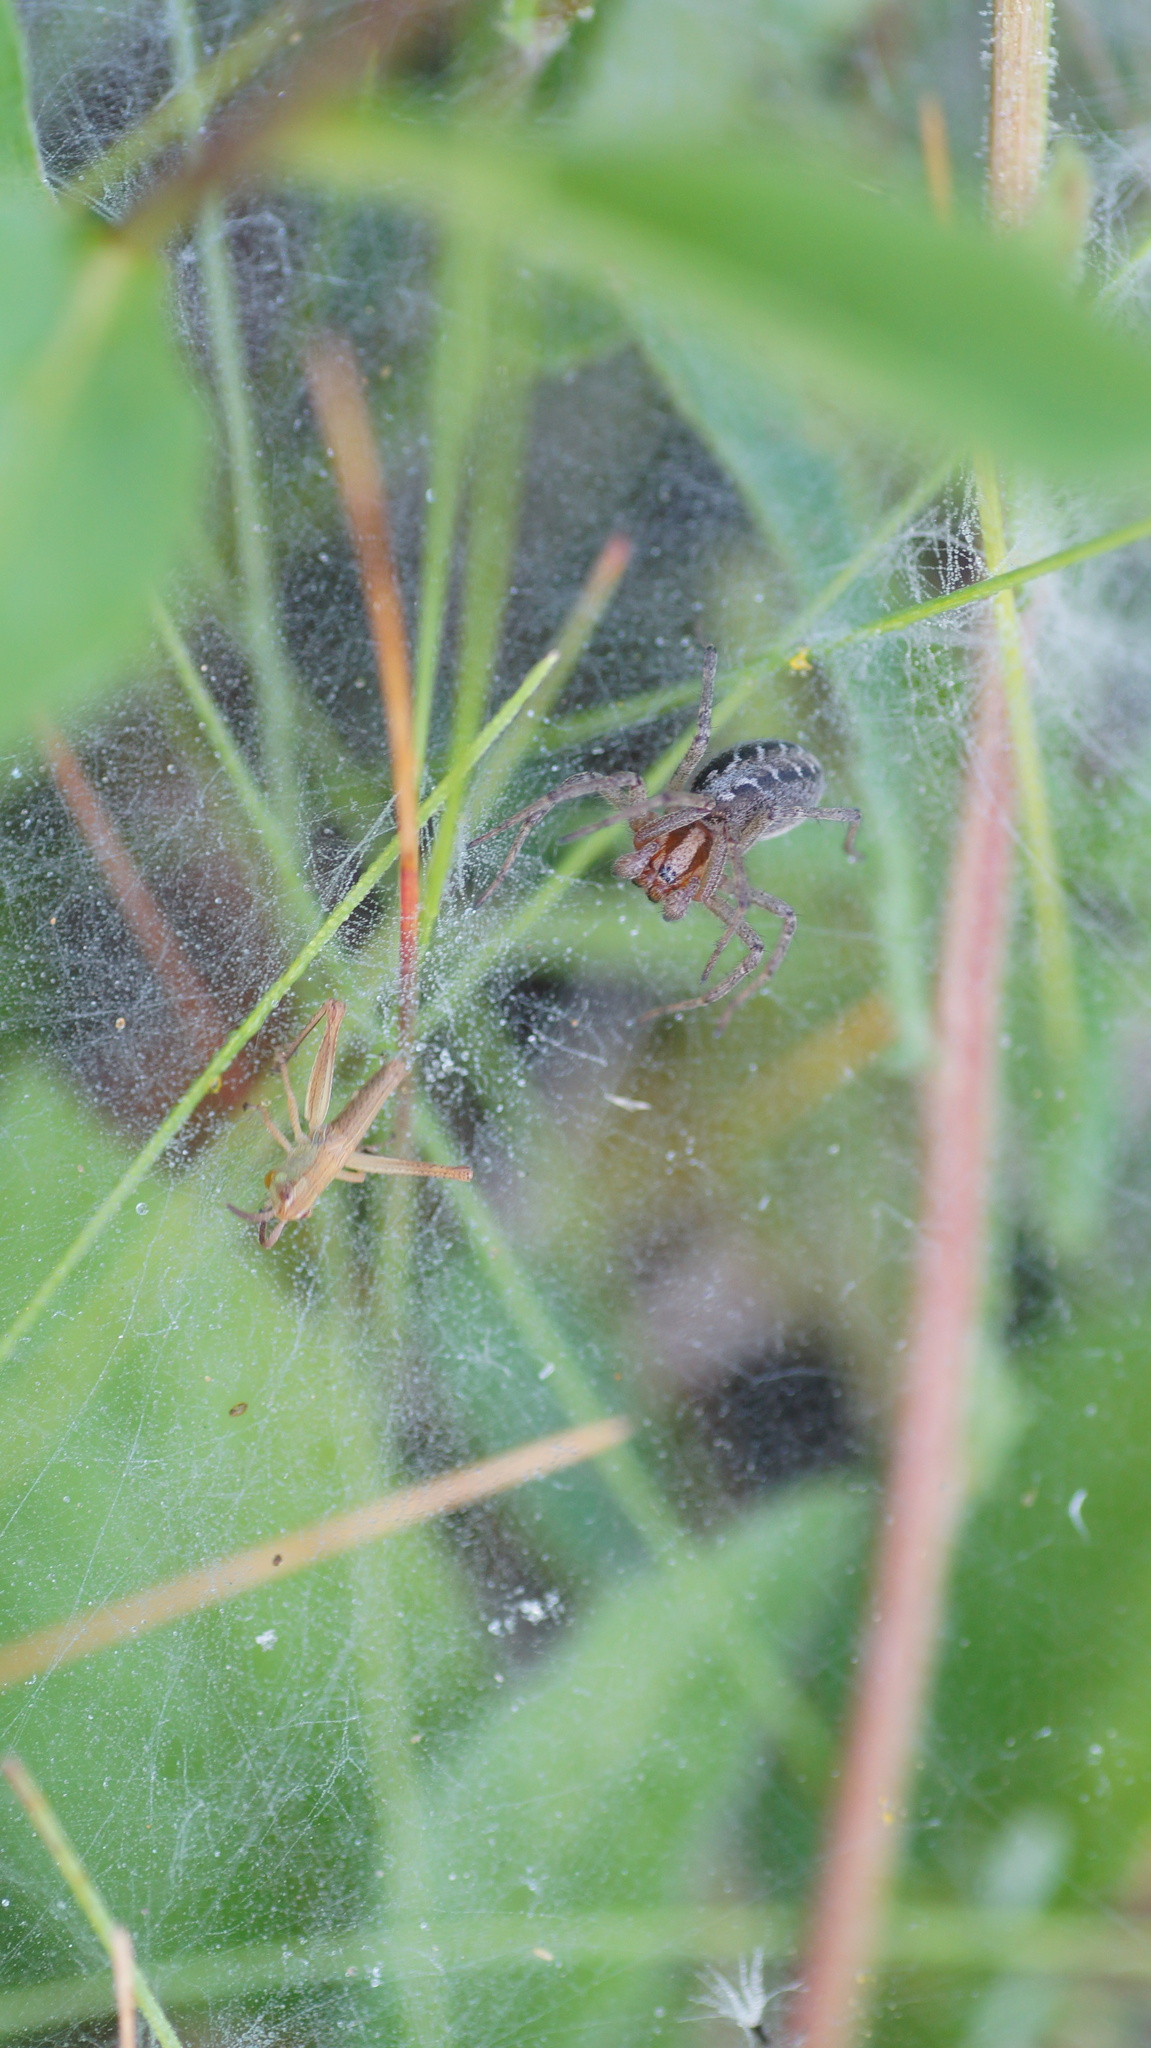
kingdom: Animalia
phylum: Arthropoda
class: Arachnida
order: Araneae
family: Agelenidae
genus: Agelena
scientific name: Agelena labyrinthica
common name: Labyrinth spider
